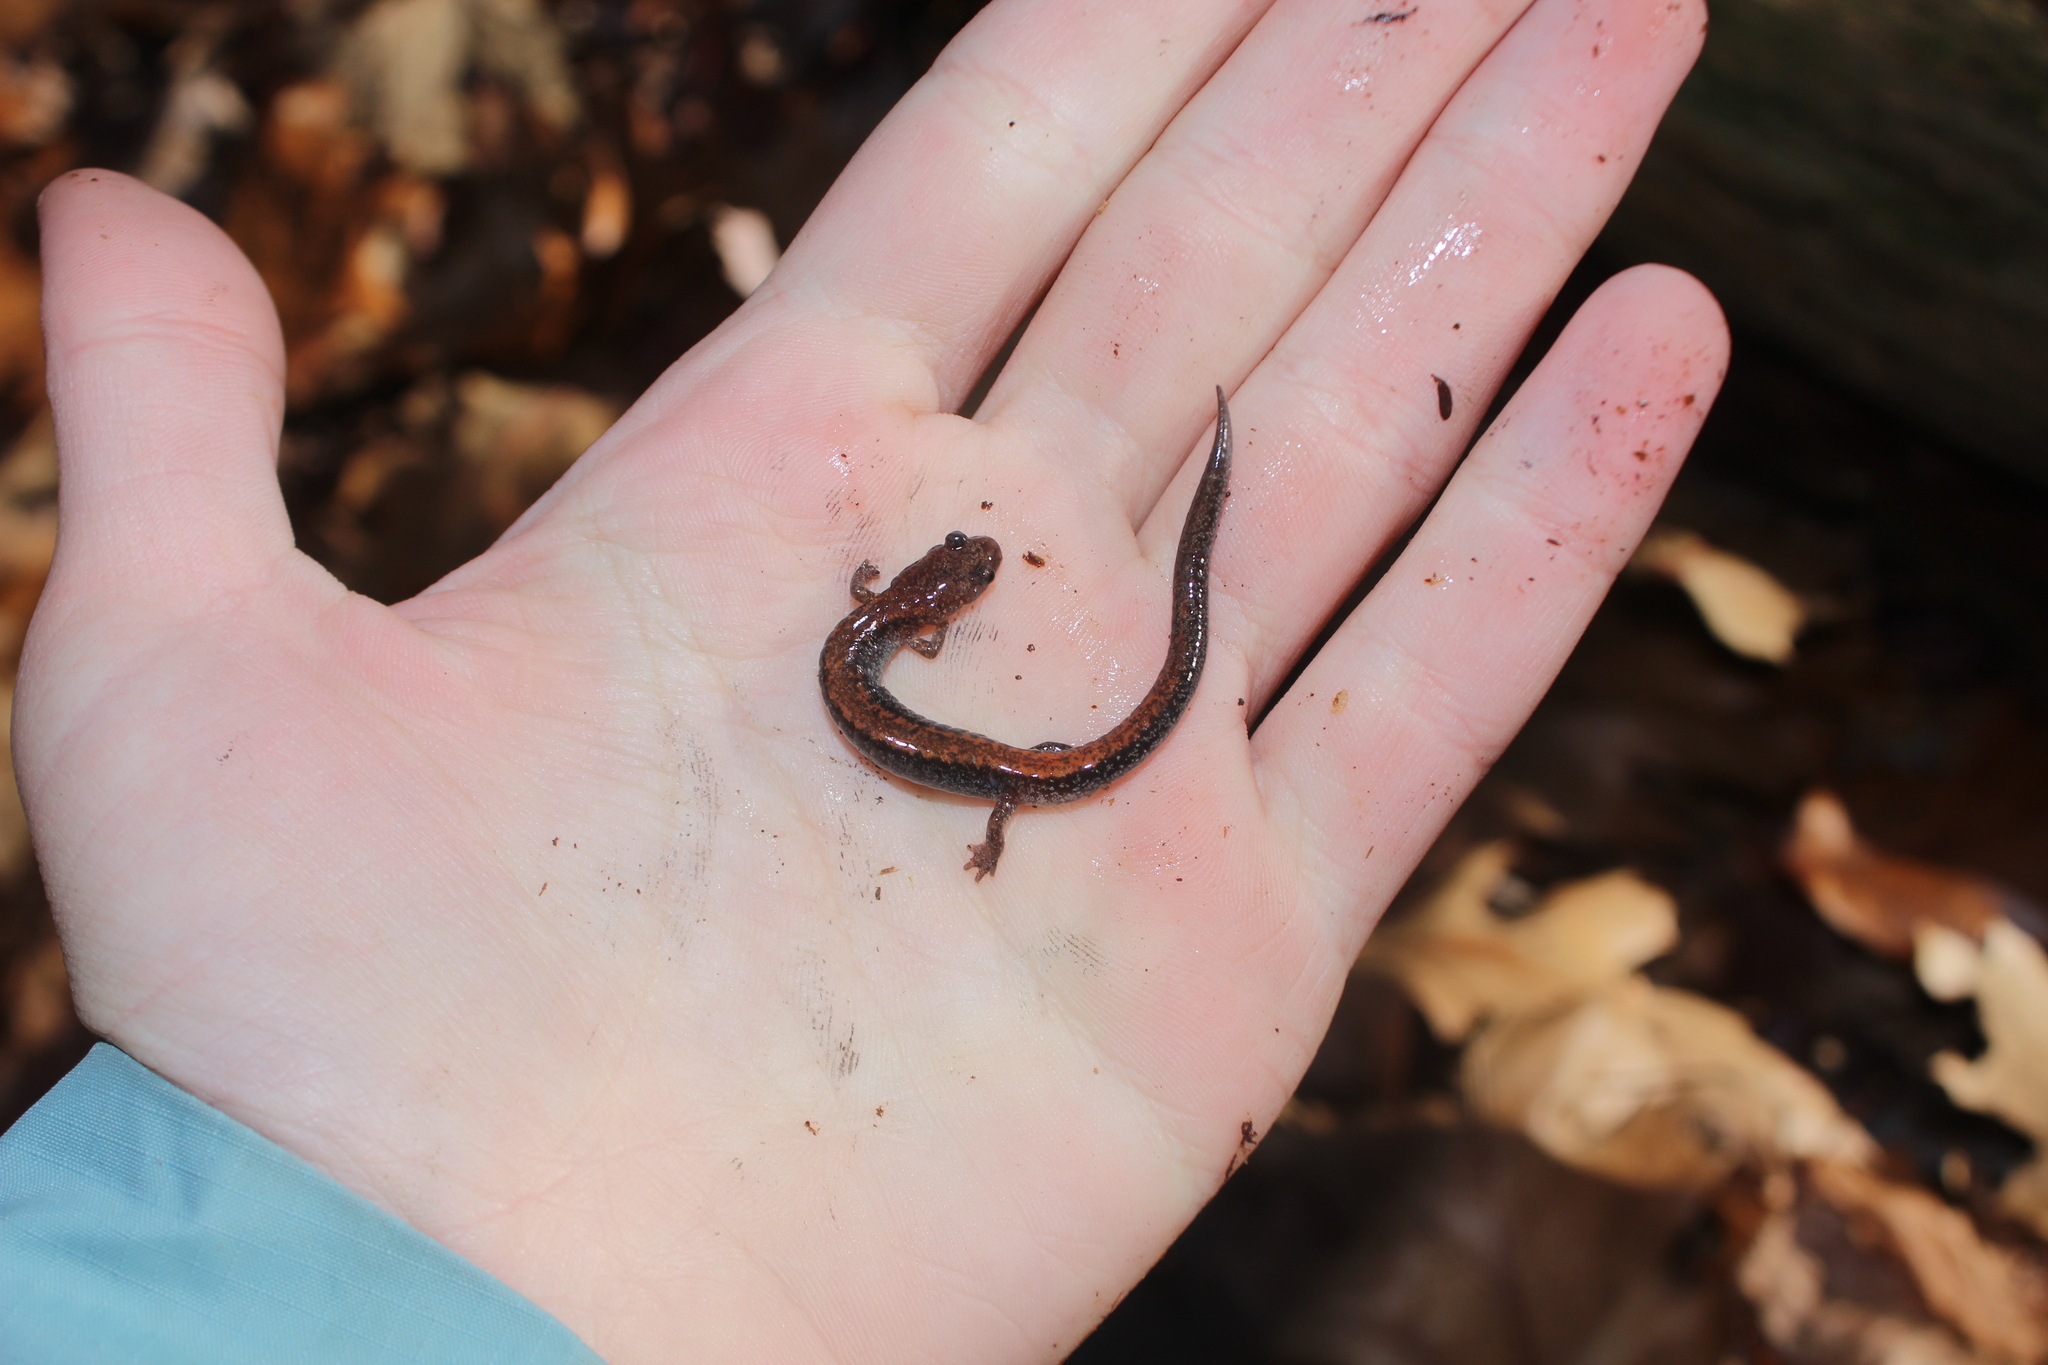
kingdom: Animalia
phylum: Chordata
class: Amphibia
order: Caudata
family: Plethodontidae
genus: Plethodon
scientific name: Plethodon cinereus
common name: Redback salamander
